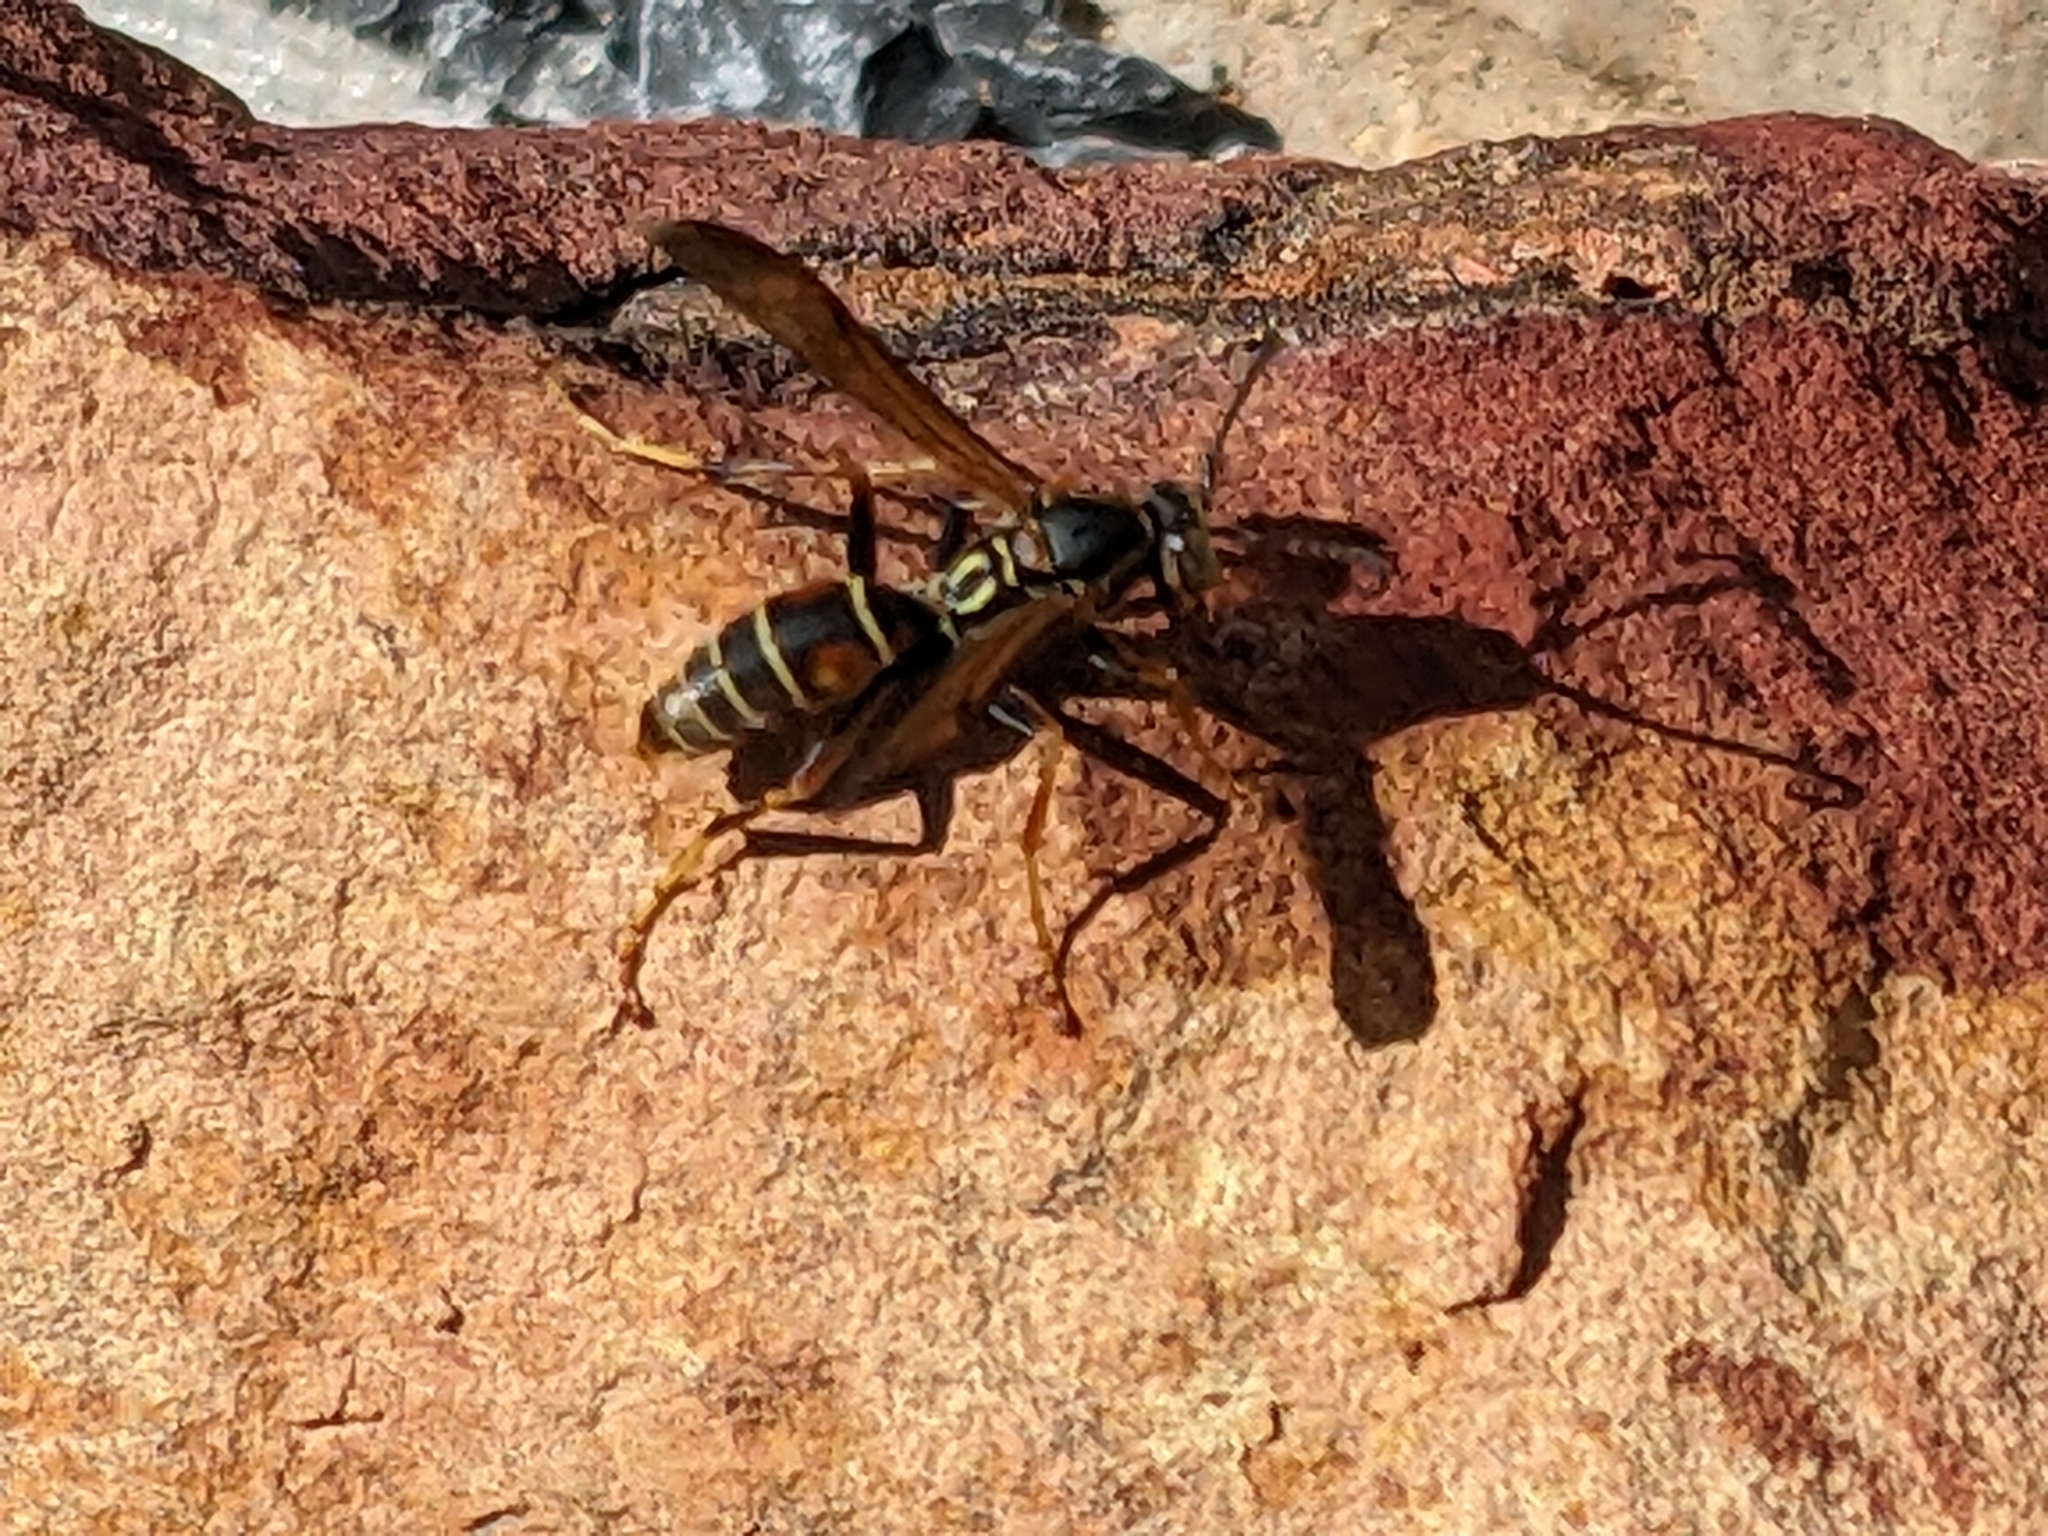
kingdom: Animalia
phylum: Arthropoda
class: Insecta
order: Hymenoptera
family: Eumenidae
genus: Polistes
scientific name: Polistes fuscatus
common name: Dark paper wasp
